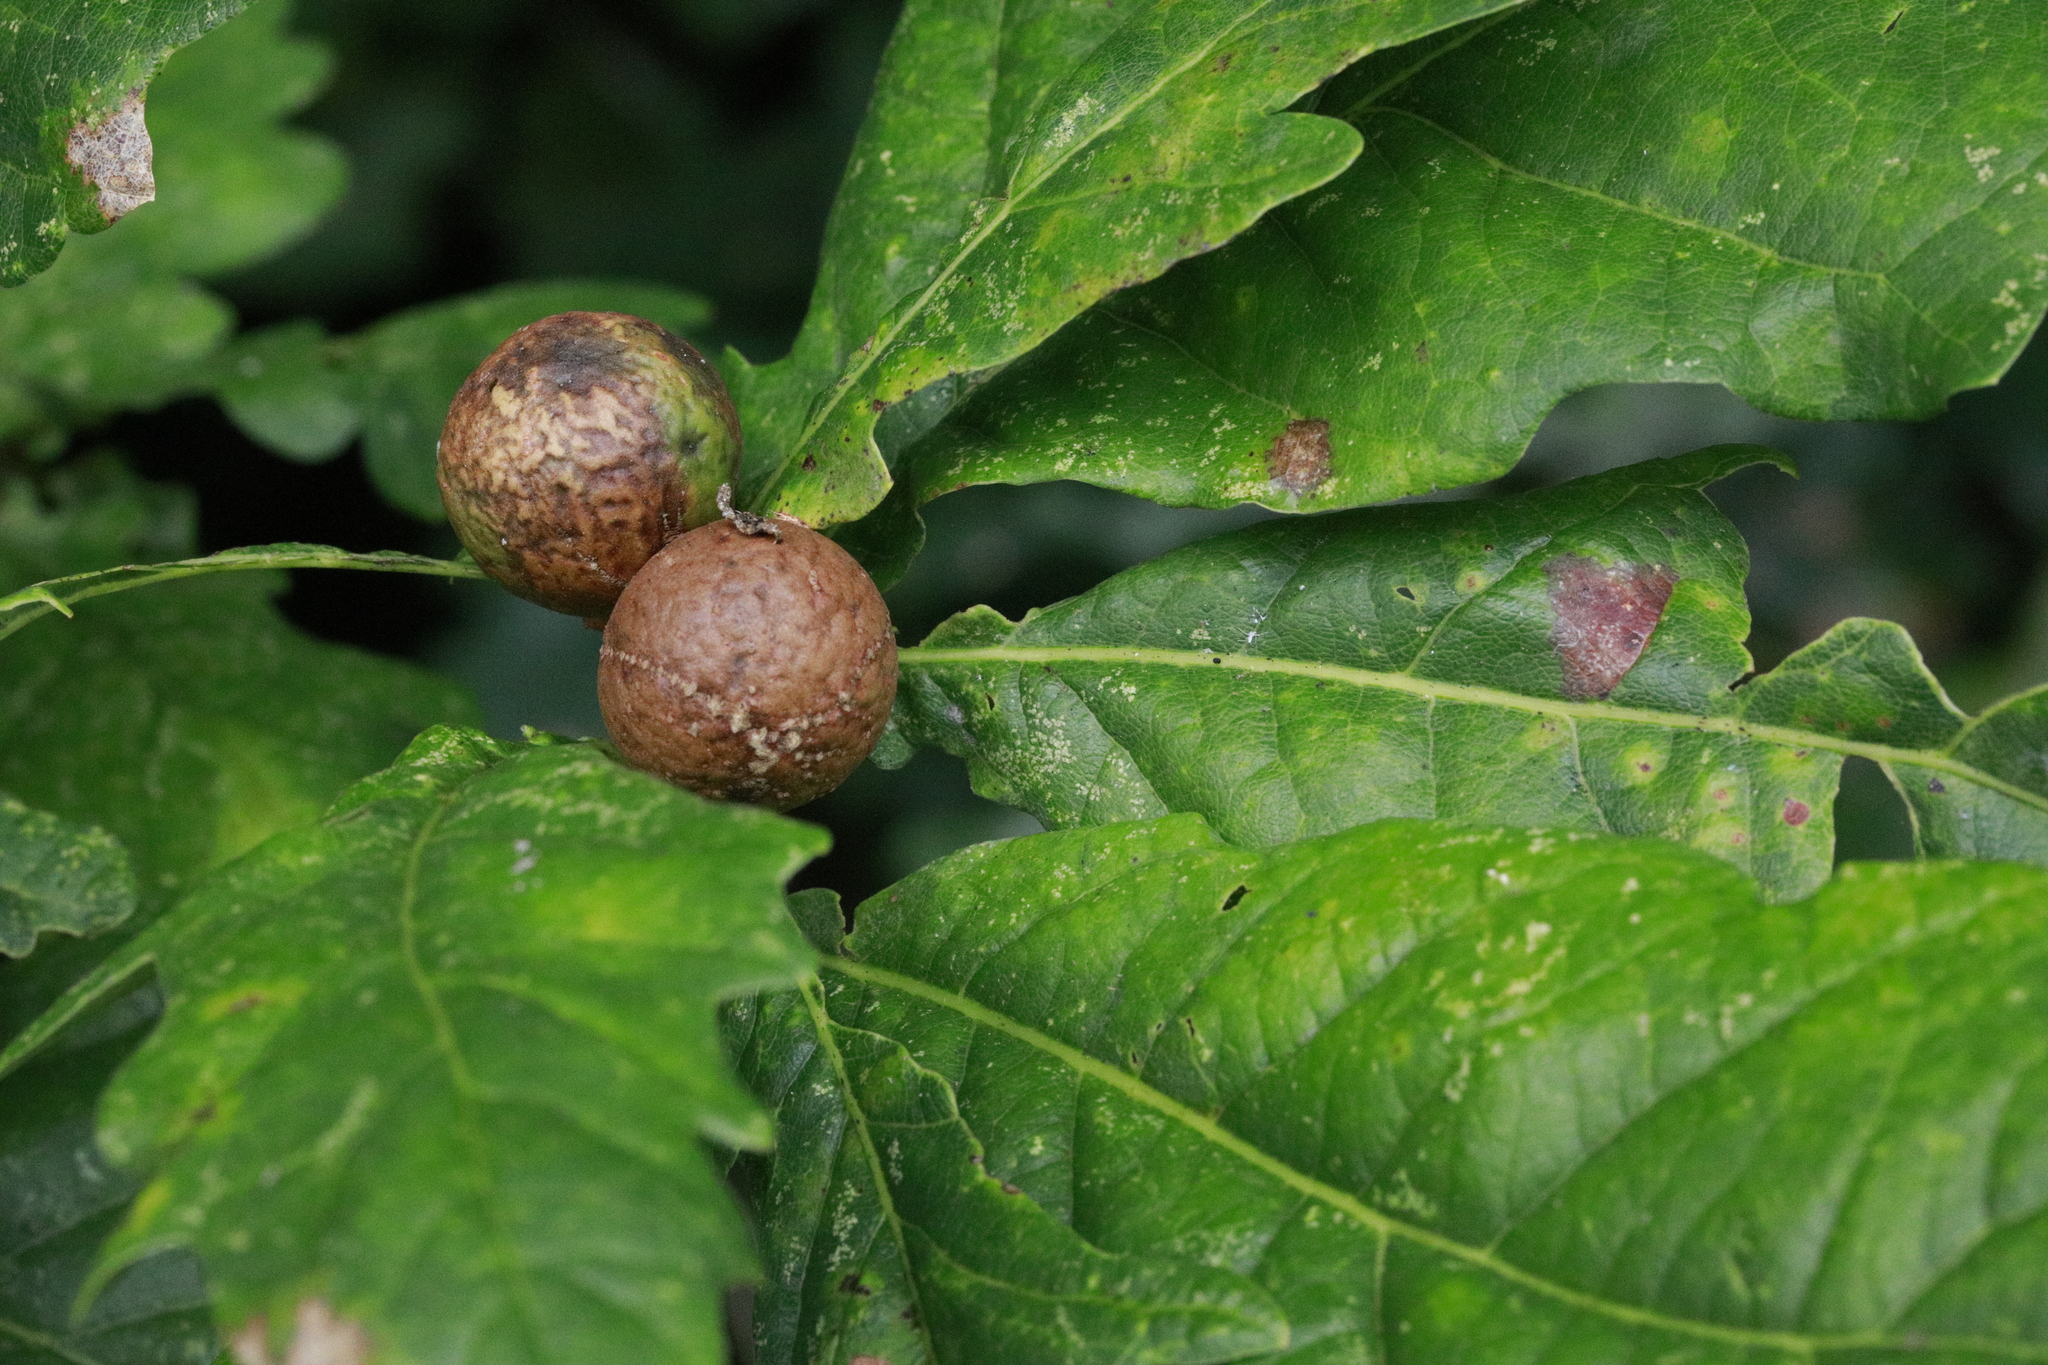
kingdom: Animalia
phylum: Arthropoda
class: Insecta
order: Hymenoptera
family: Cynipidae
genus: Andricus
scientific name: Andricus kollari
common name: Marble gall
